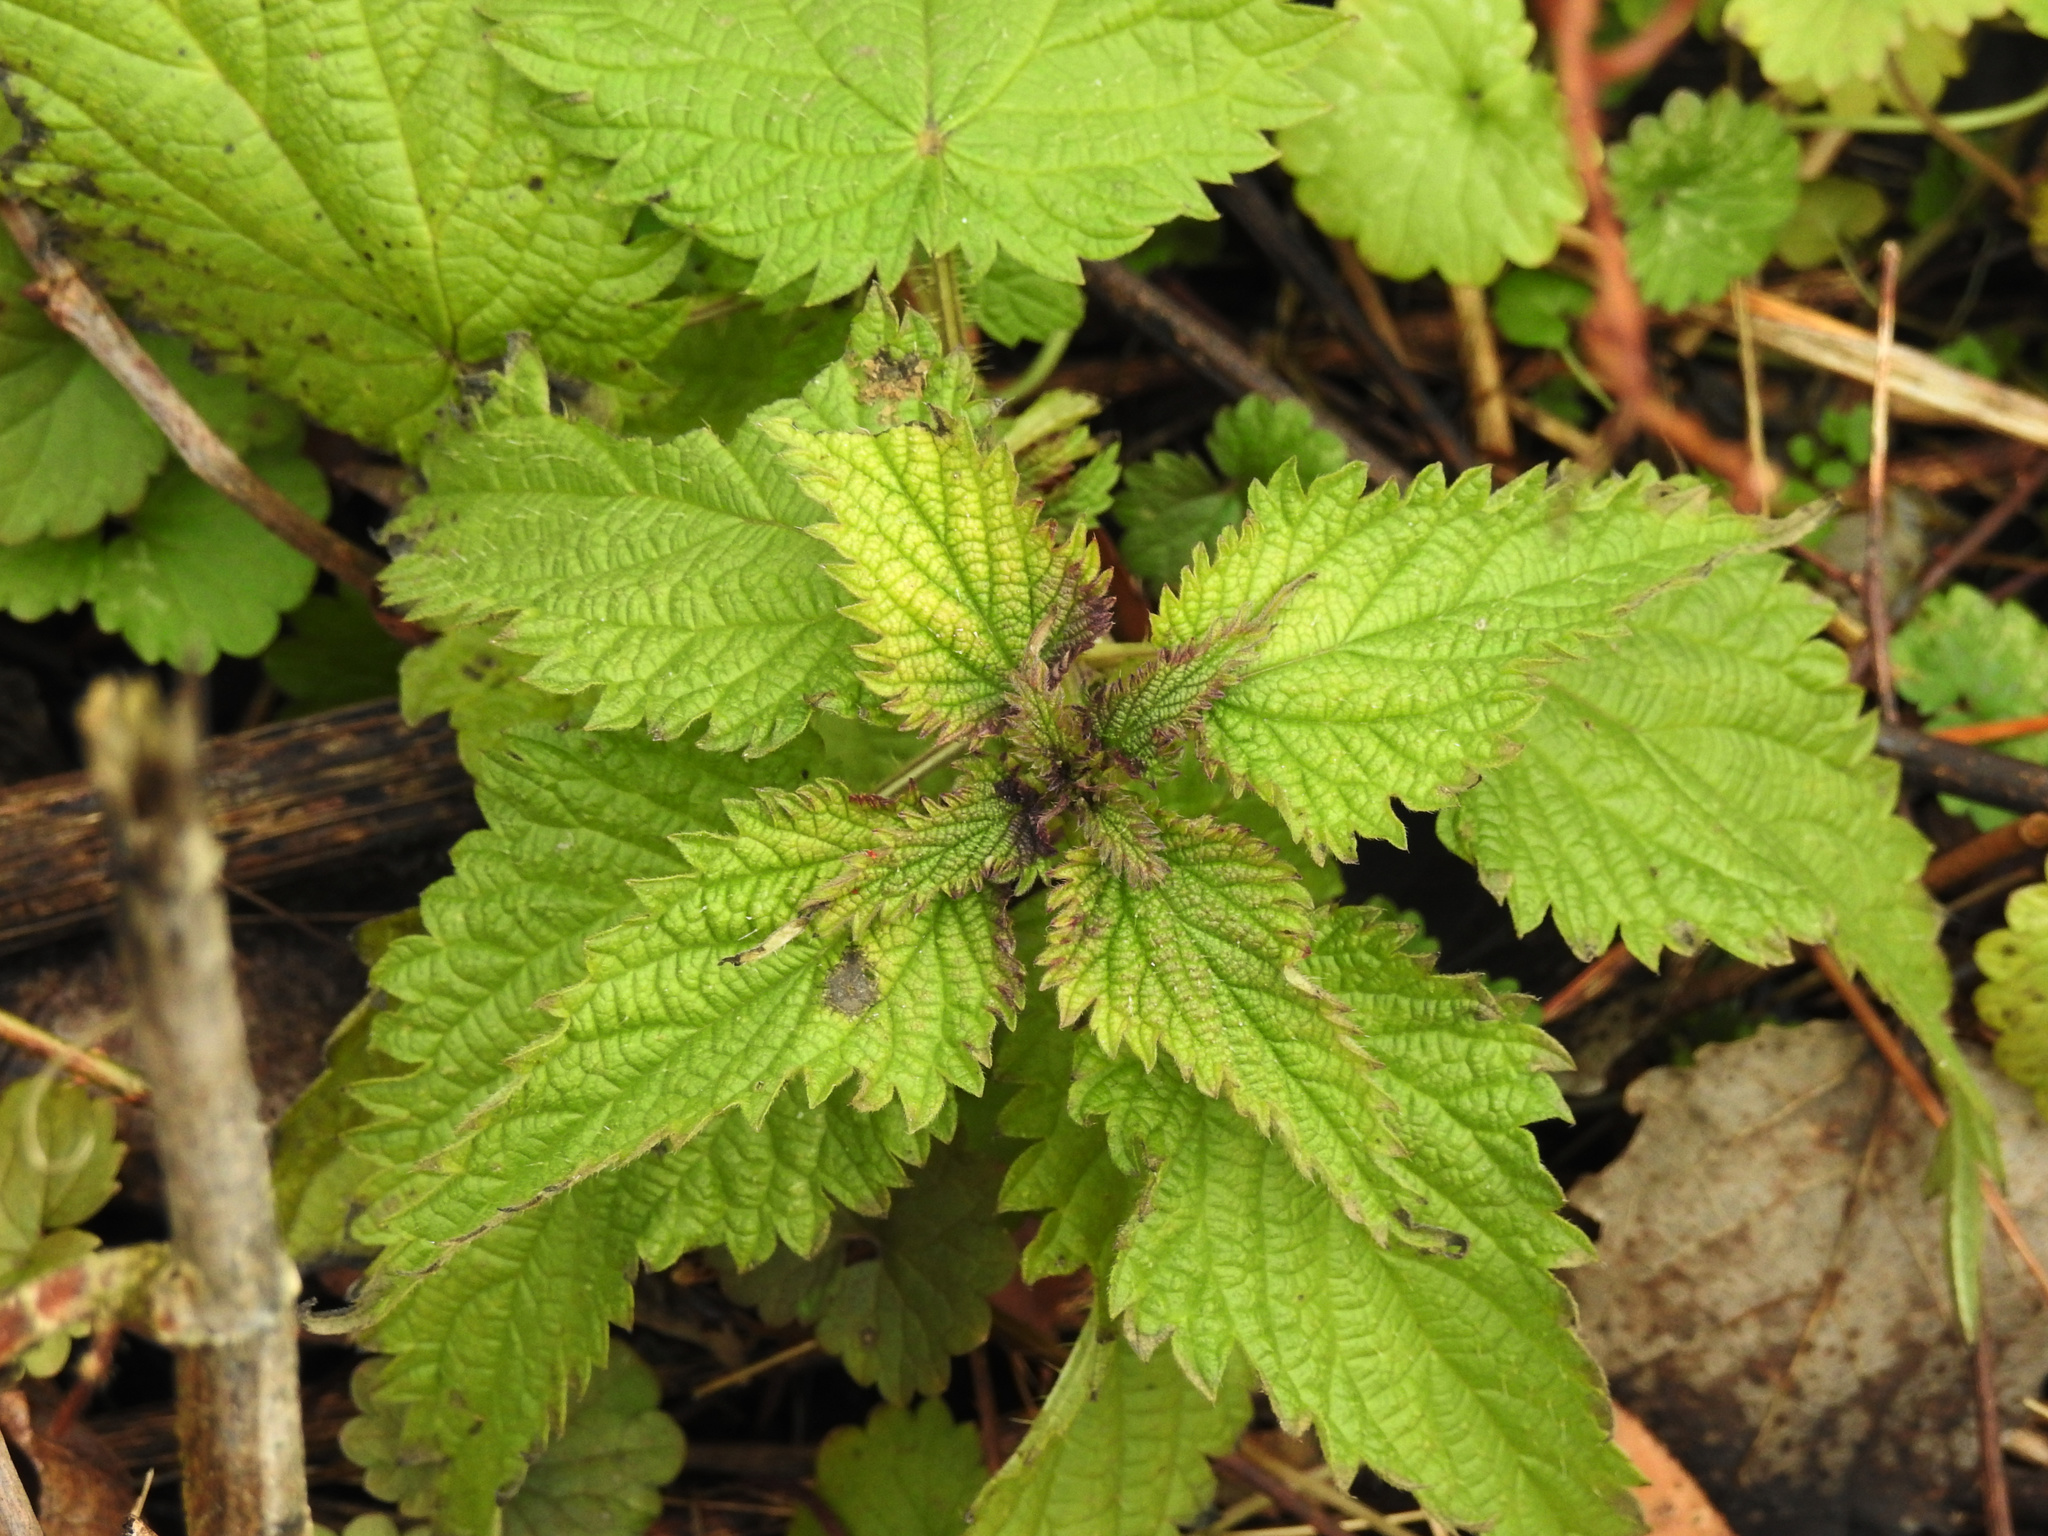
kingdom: Plantae
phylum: Tracheophyta
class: Magnoliopsida
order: Rosales
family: Urticaceae
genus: Urtica
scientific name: Urtica dioica
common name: Common nettle
